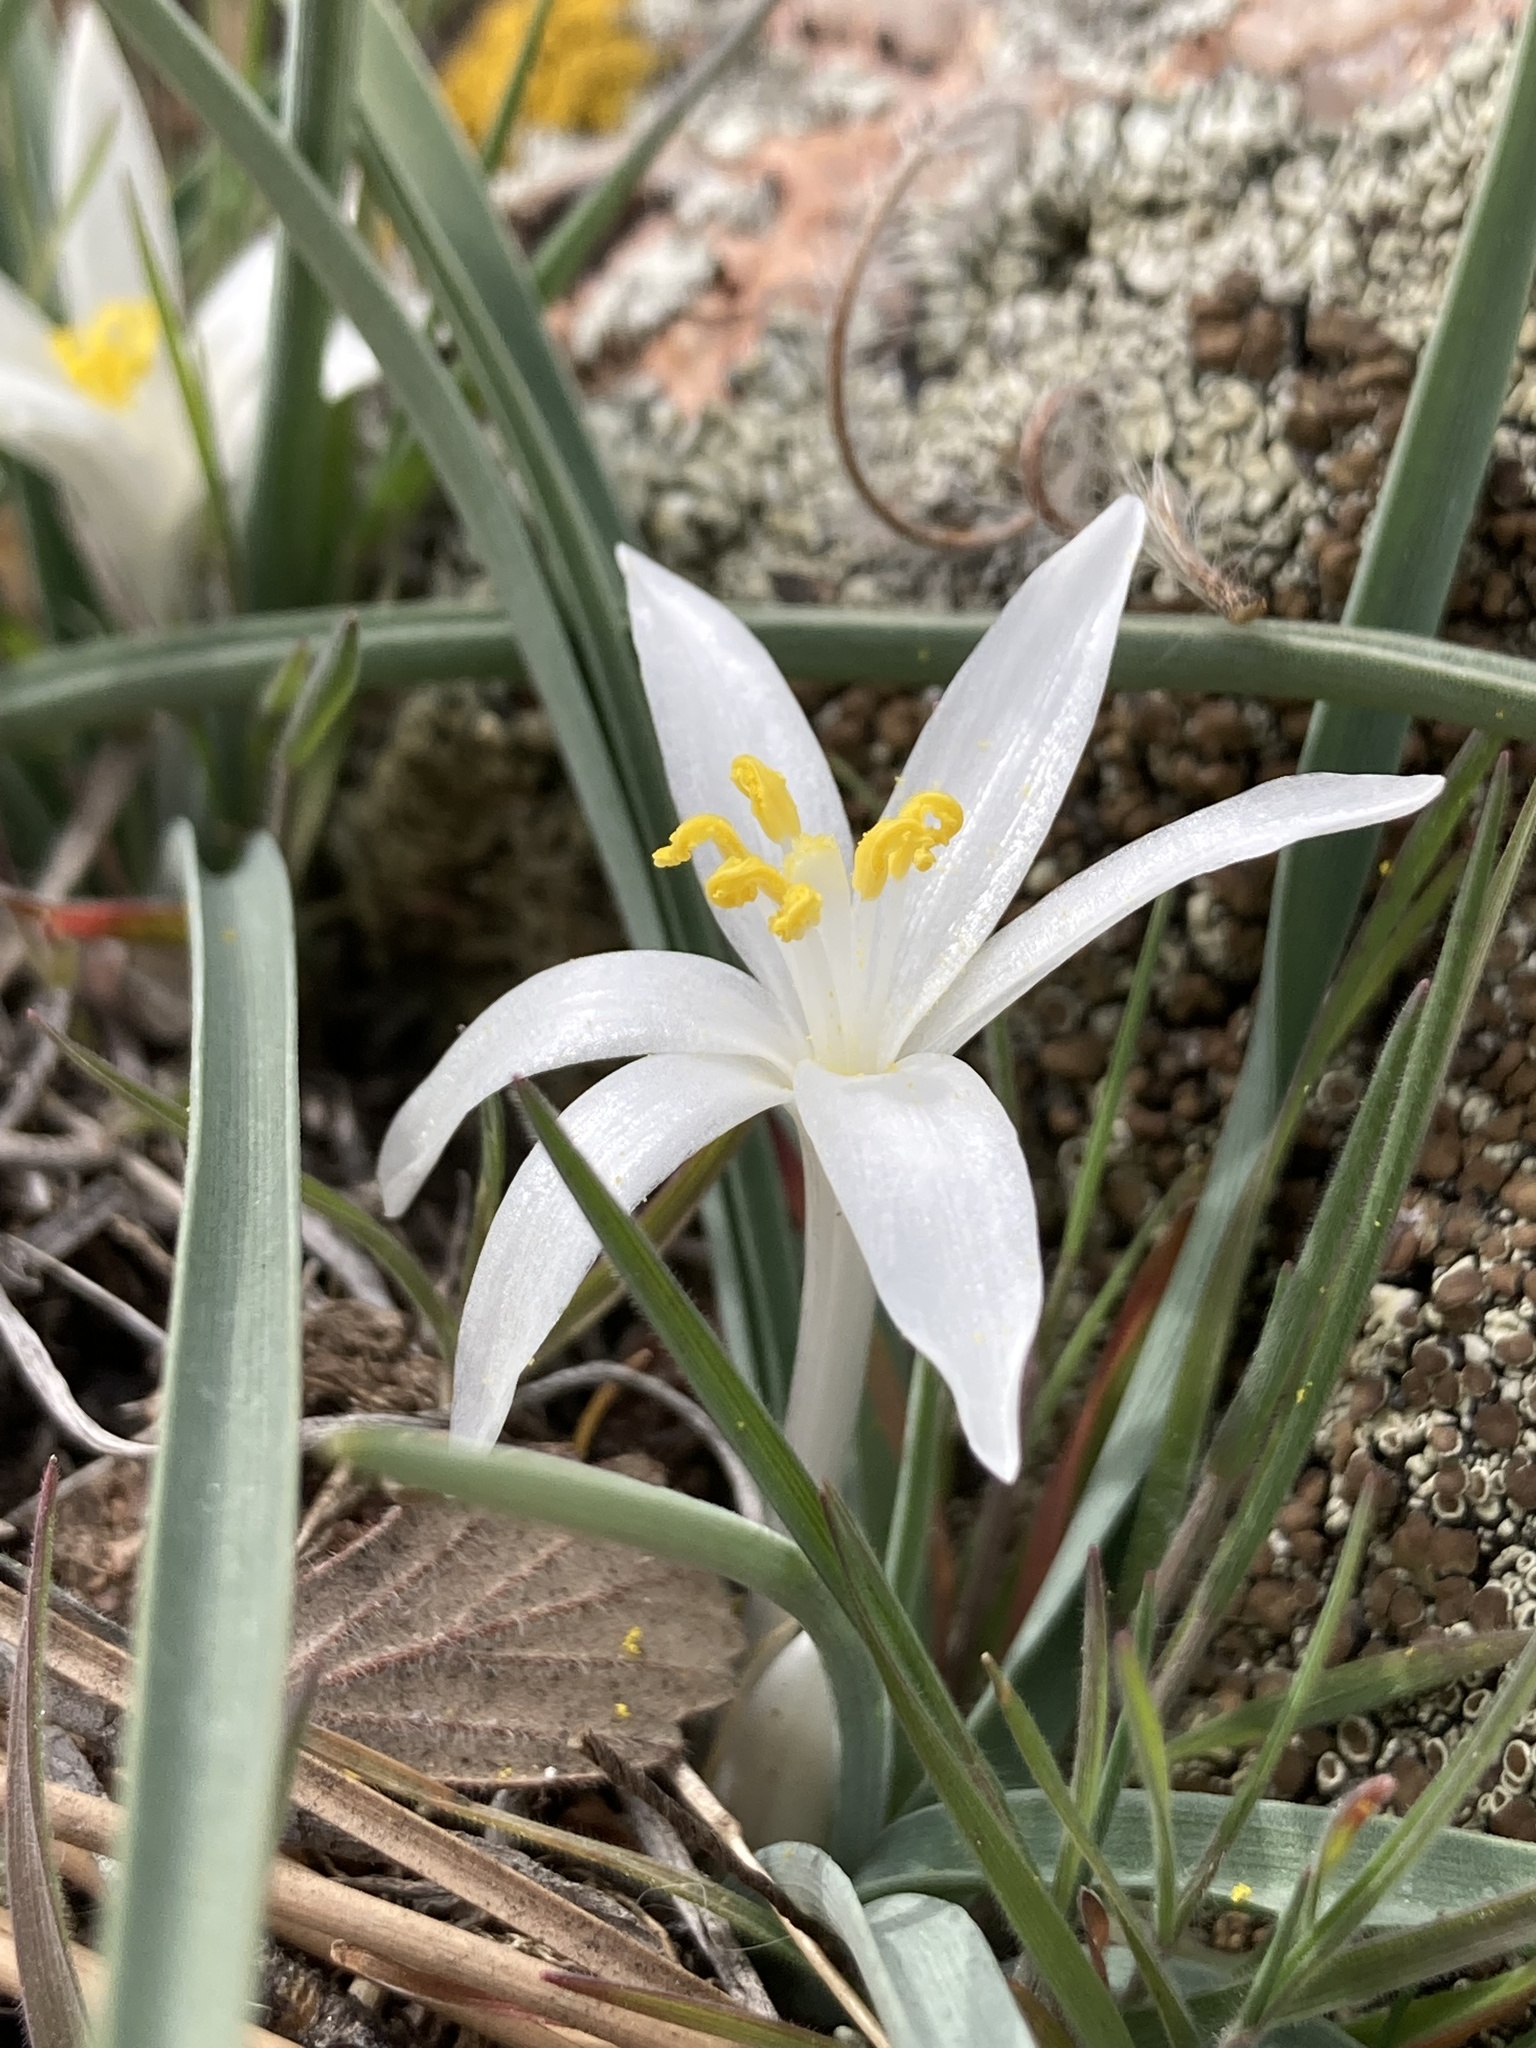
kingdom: Plantae
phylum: Tracheophyta
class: Liliopsida
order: Asparagales
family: Asparagaceae
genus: Leucocrinum
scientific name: Leucocrinum montanum
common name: Mountain-lily
